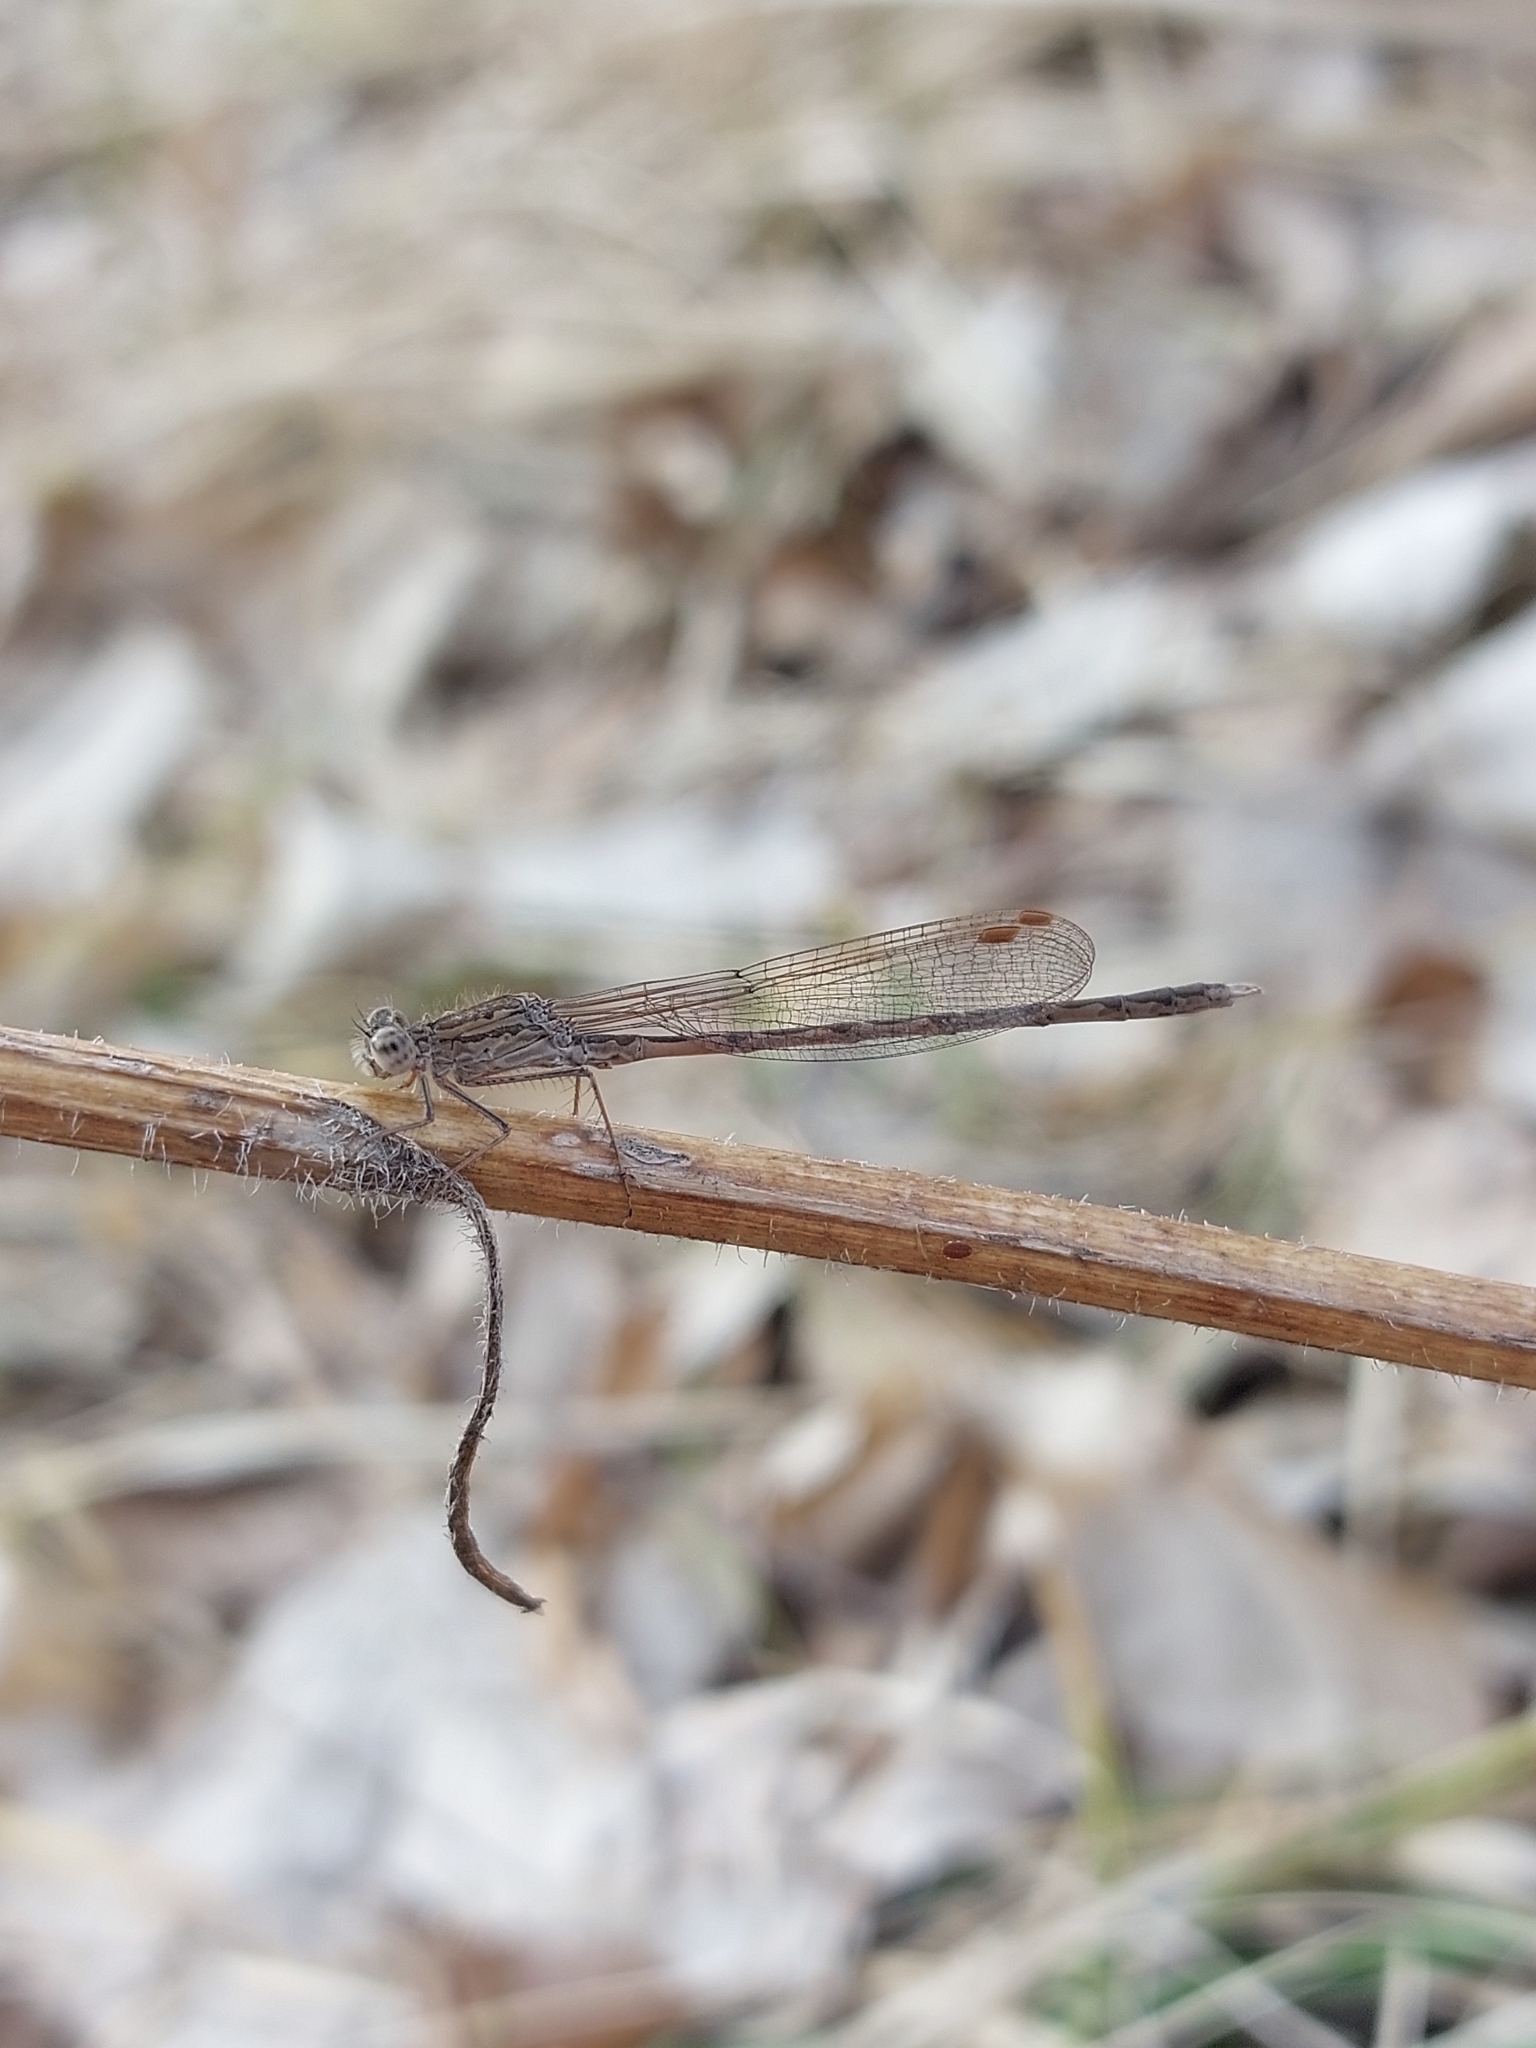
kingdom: Animalia
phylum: Arthropoda
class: Insecta
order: Odonata
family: Lestidae
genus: Sympecma
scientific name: Sympecma paedisca
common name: Siberian winter damsel
